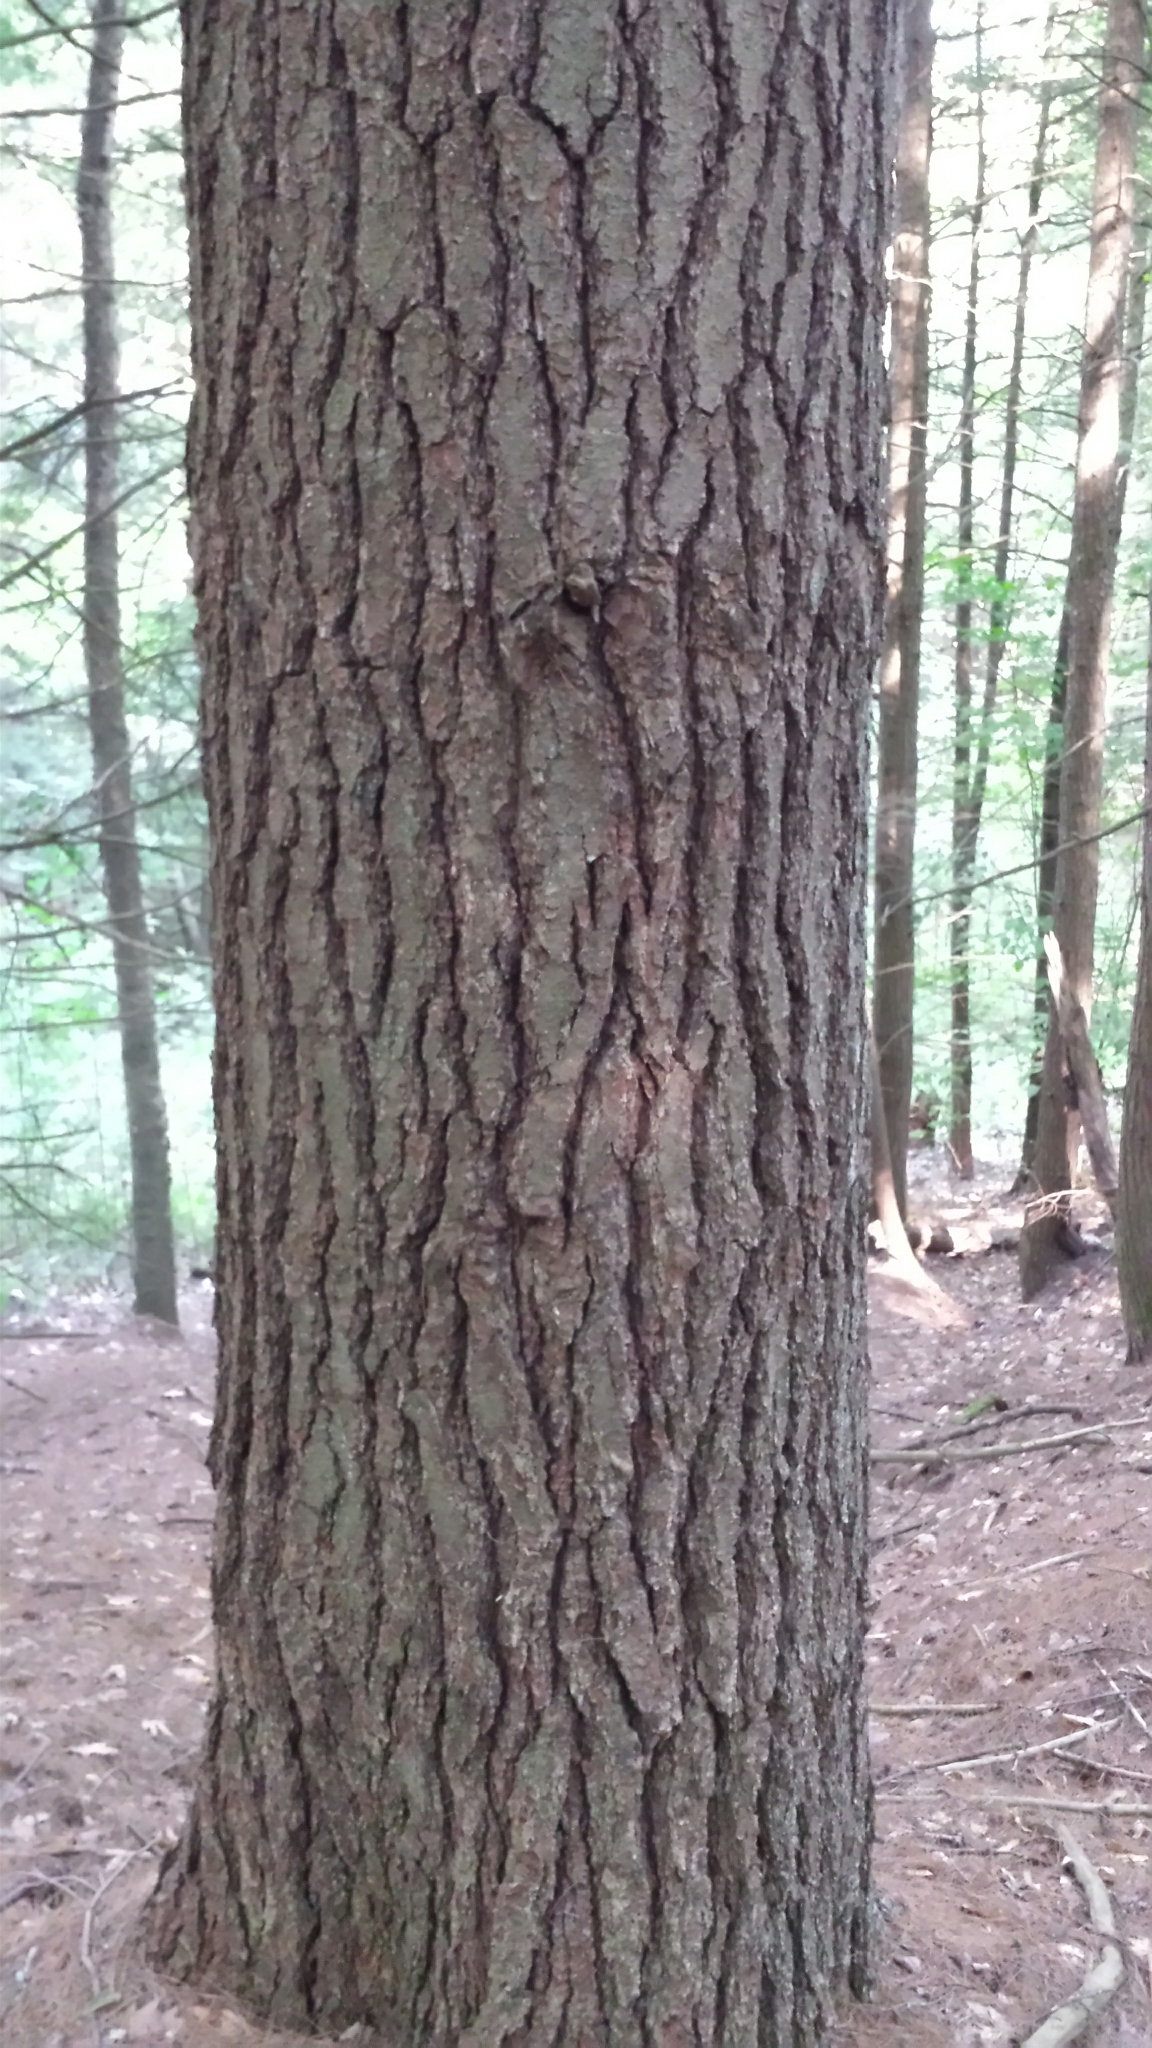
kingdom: Plantae
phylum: Tracheophyta
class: Pinopsida
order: Pinales
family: Pinaceae
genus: Pinus
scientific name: Pinus strobus
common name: Weymouth pine
